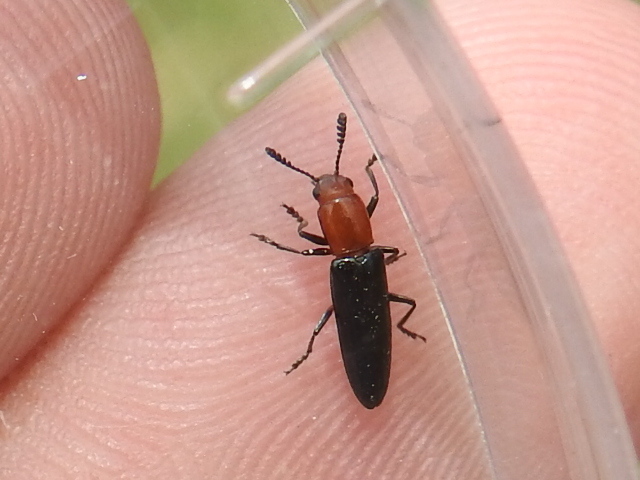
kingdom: Animalia
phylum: Arthropoda
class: Insecta
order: Coleoptera
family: Erotylidae
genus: Languria
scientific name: Languria laeta
